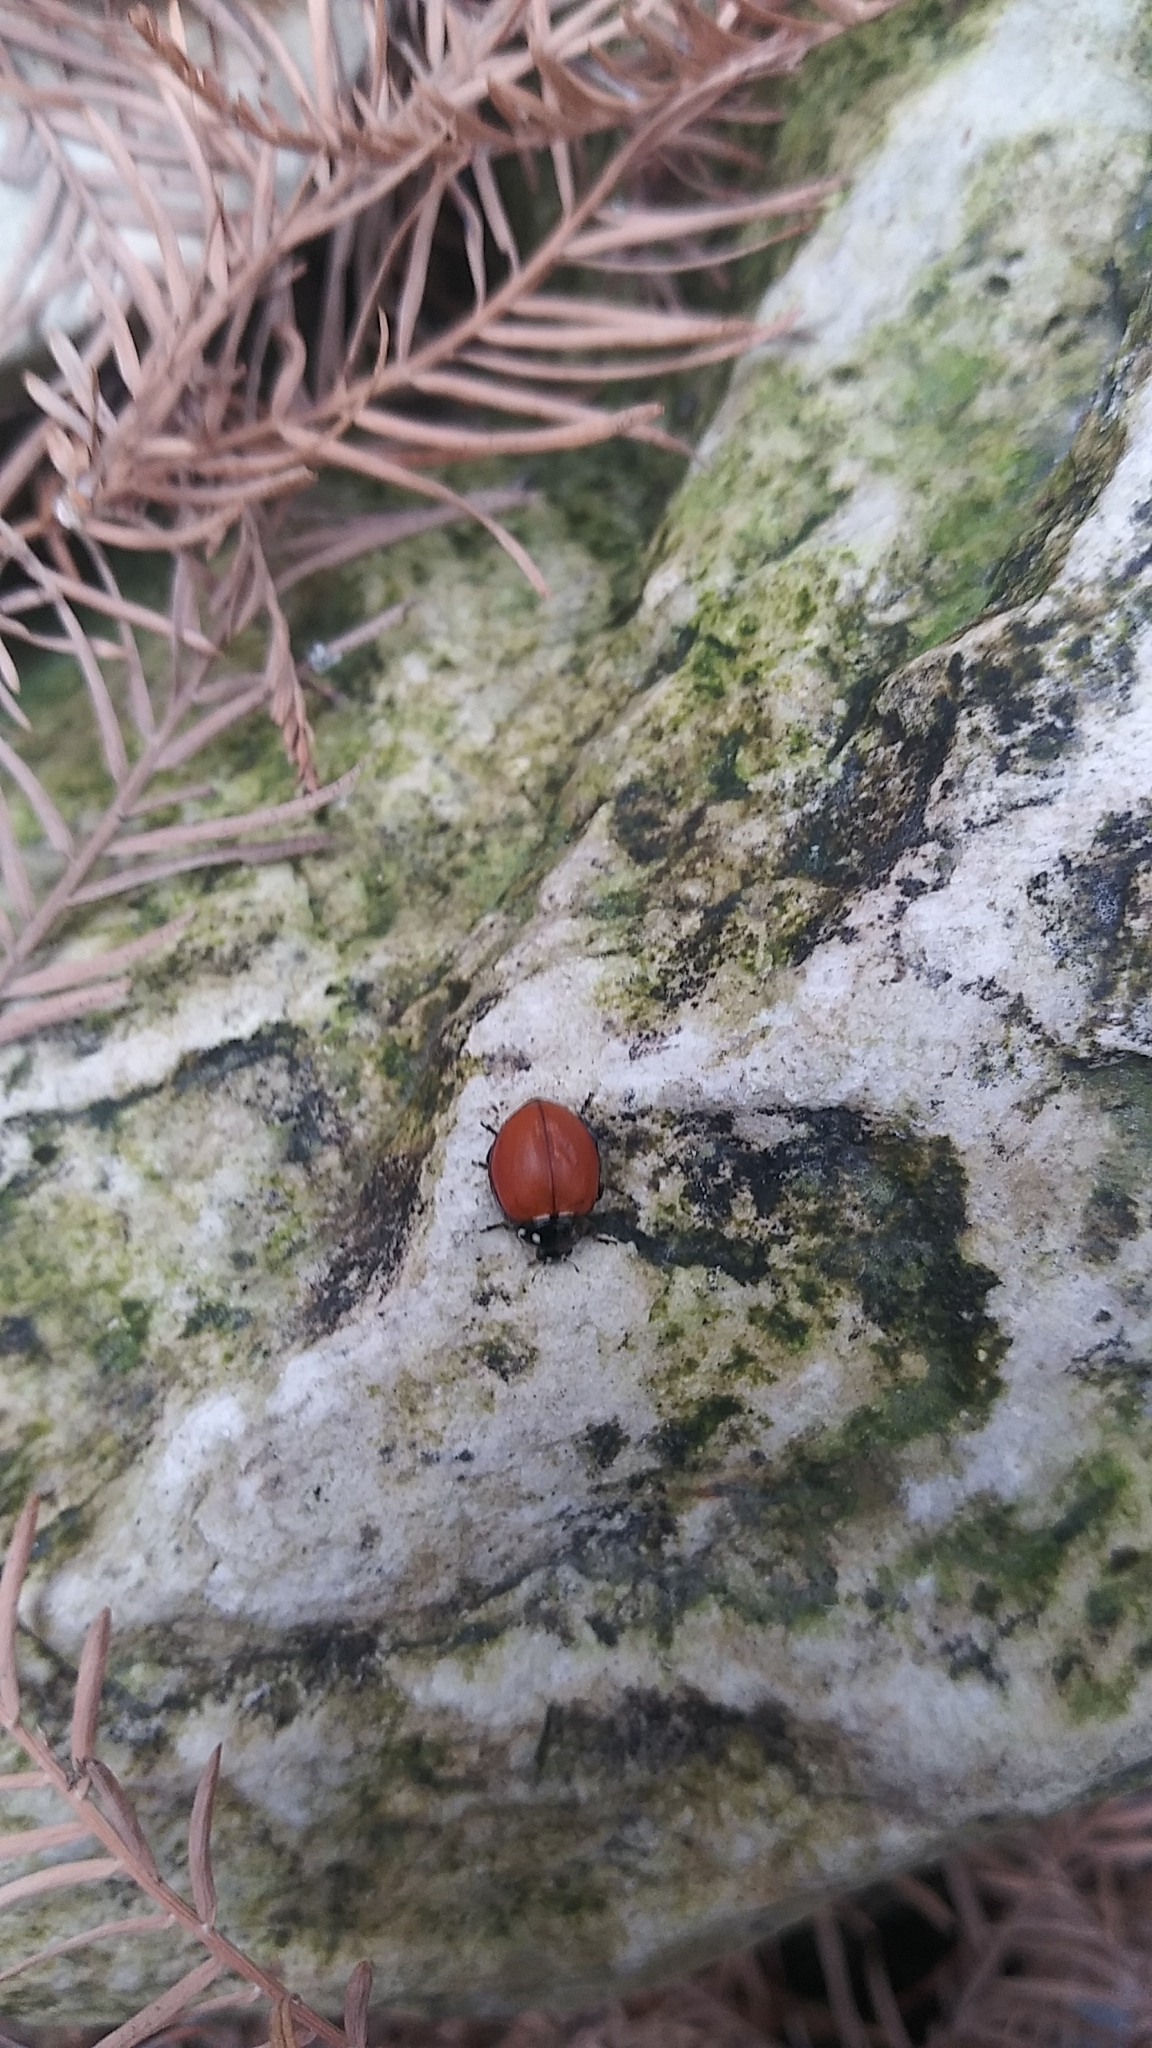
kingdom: Animalia
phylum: Arthropoda
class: Insecta
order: Coleoptera
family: Coccinellidae
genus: Cycloneda
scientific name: Cycloneda sanguinea
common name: Ladybird beetle
